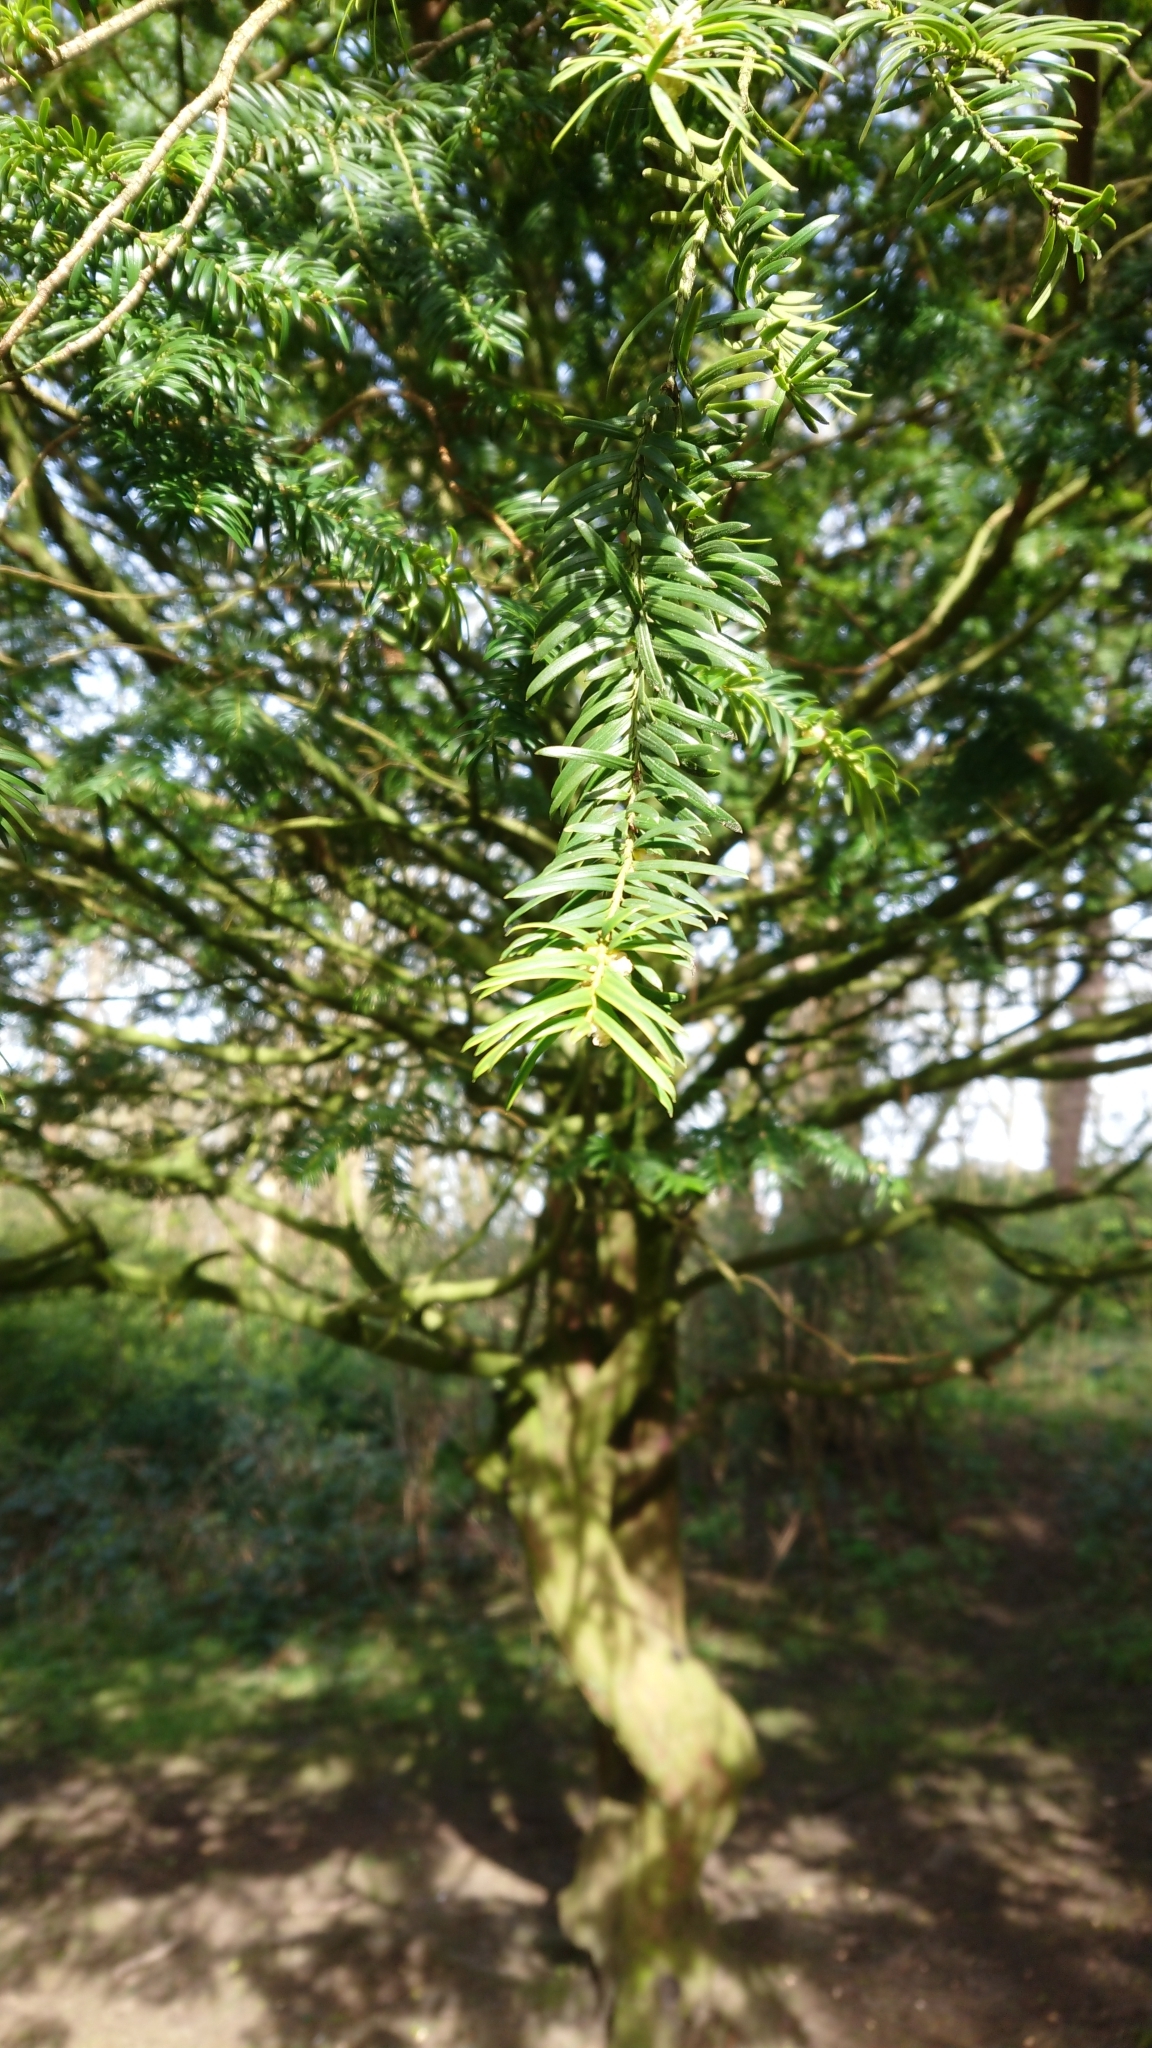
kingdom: Plantae
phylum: Tracheophyta
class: Pinopsida
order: Pinales
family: Taxaceae
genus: Taxus
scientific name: Taxus baccata
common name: Yew
